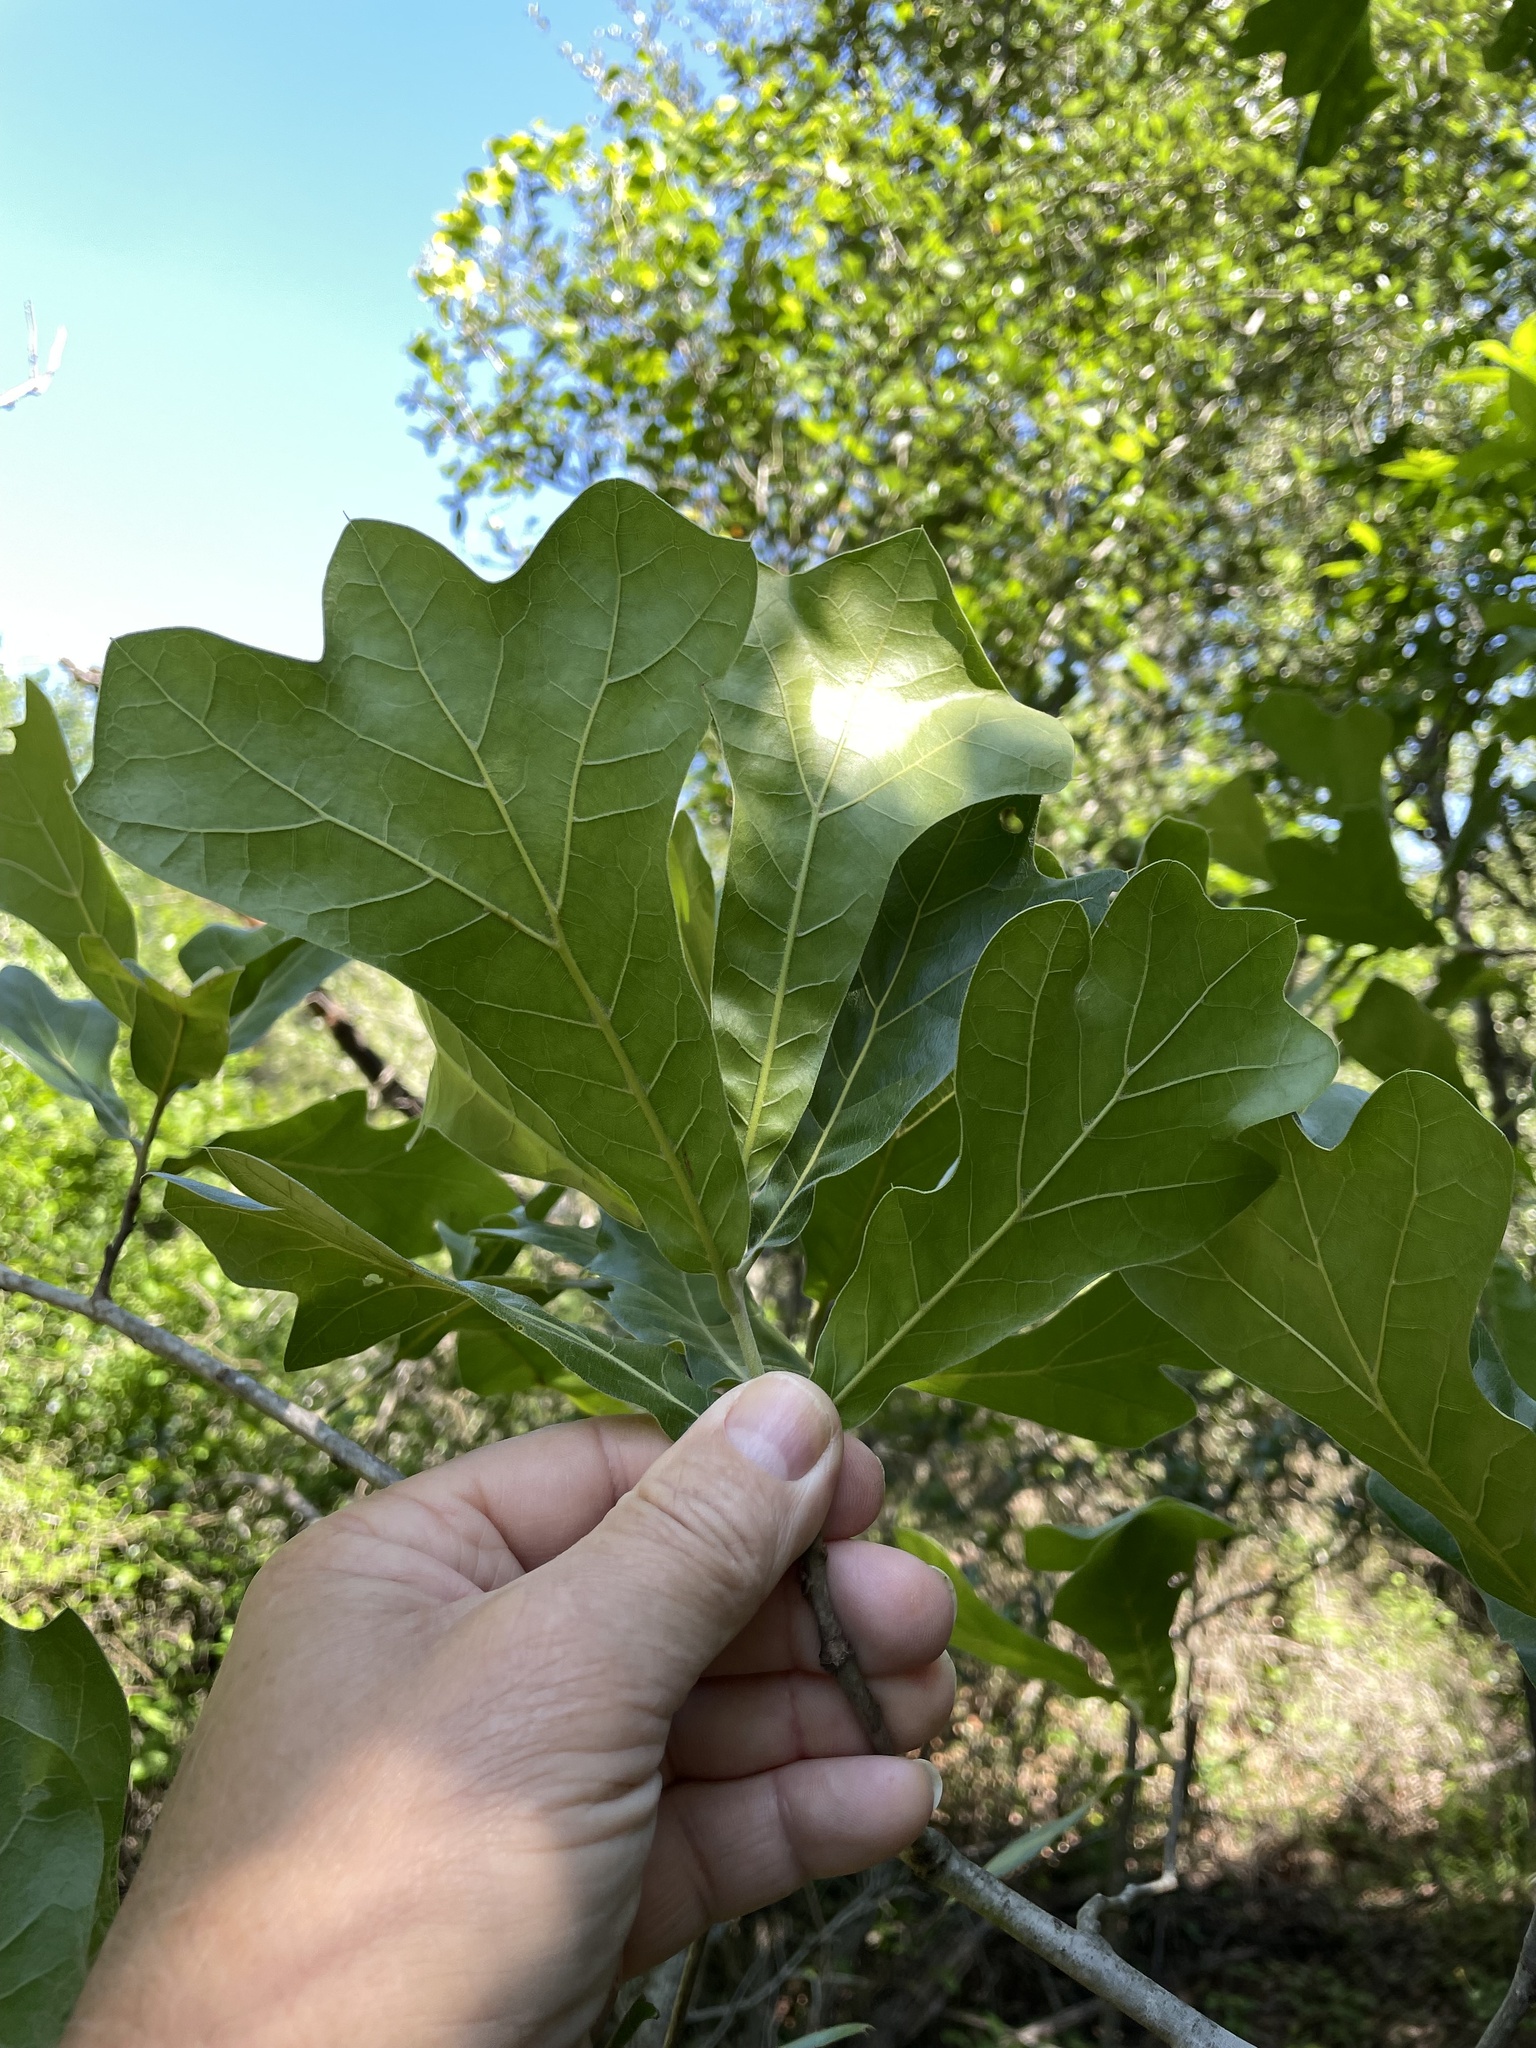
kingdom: Plantae
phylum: Tracheophyta
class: Magnoliopsida
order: Fagales
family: Fagaceae
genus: Quercus
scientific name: Quercus marilandica
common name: Blackjack oak
